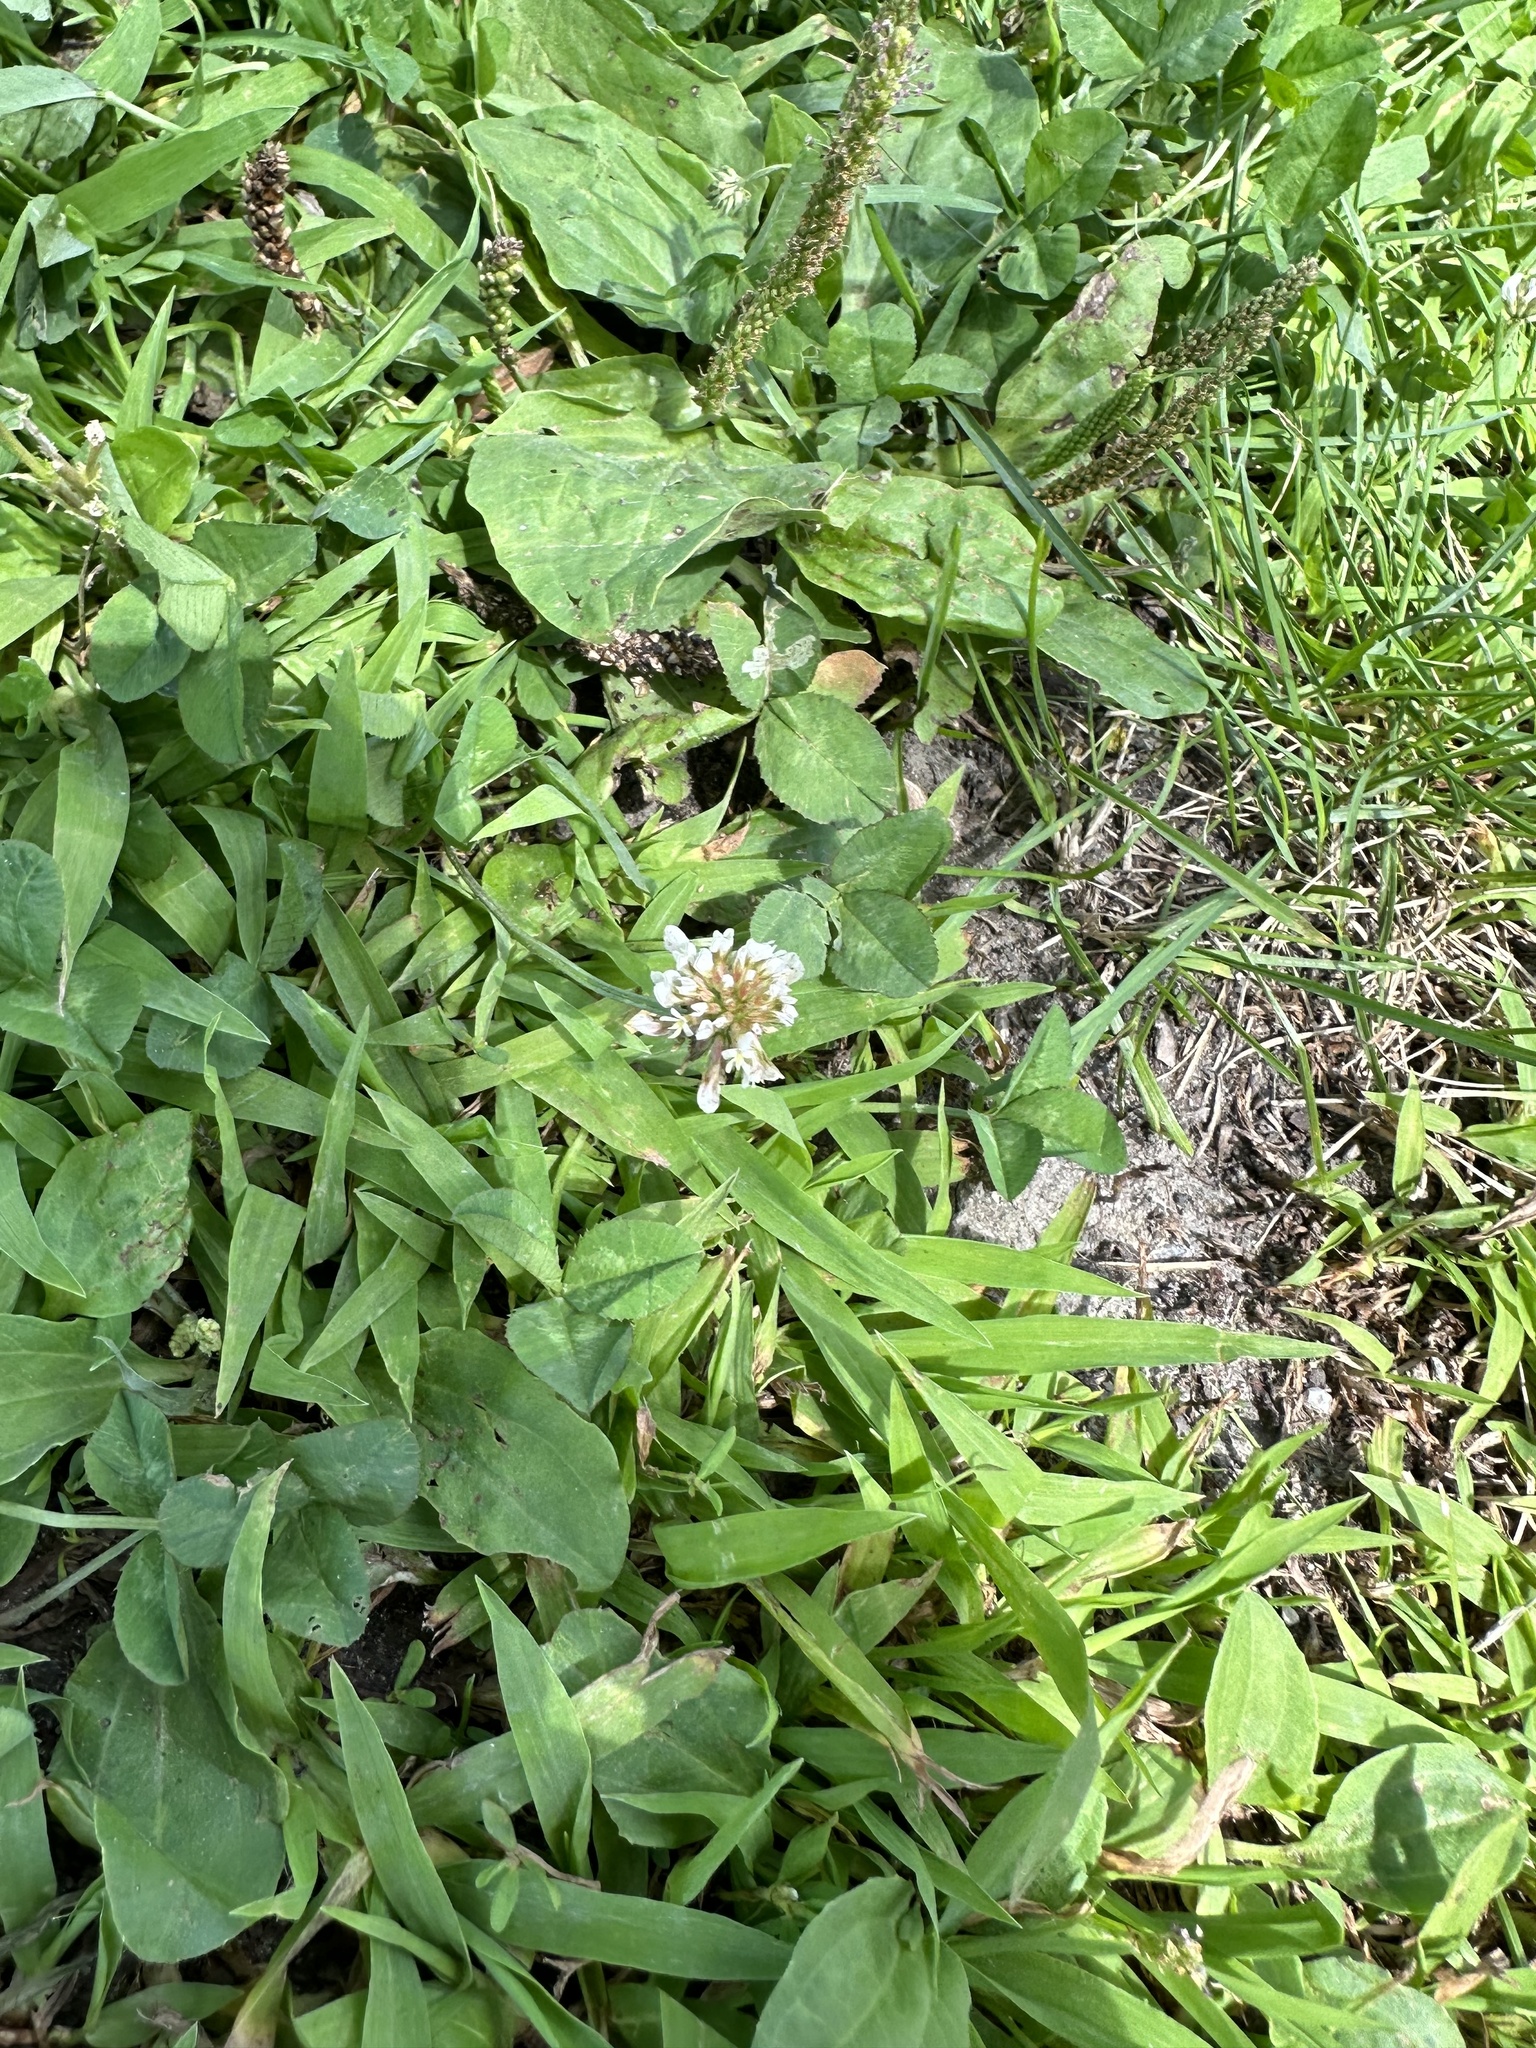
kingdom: Plantae
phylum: Tracheophyta
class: Magnoliopsida
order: Fabales
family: Fabaceae
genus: Trifolium
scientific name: Trifolium repens
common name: White clover
